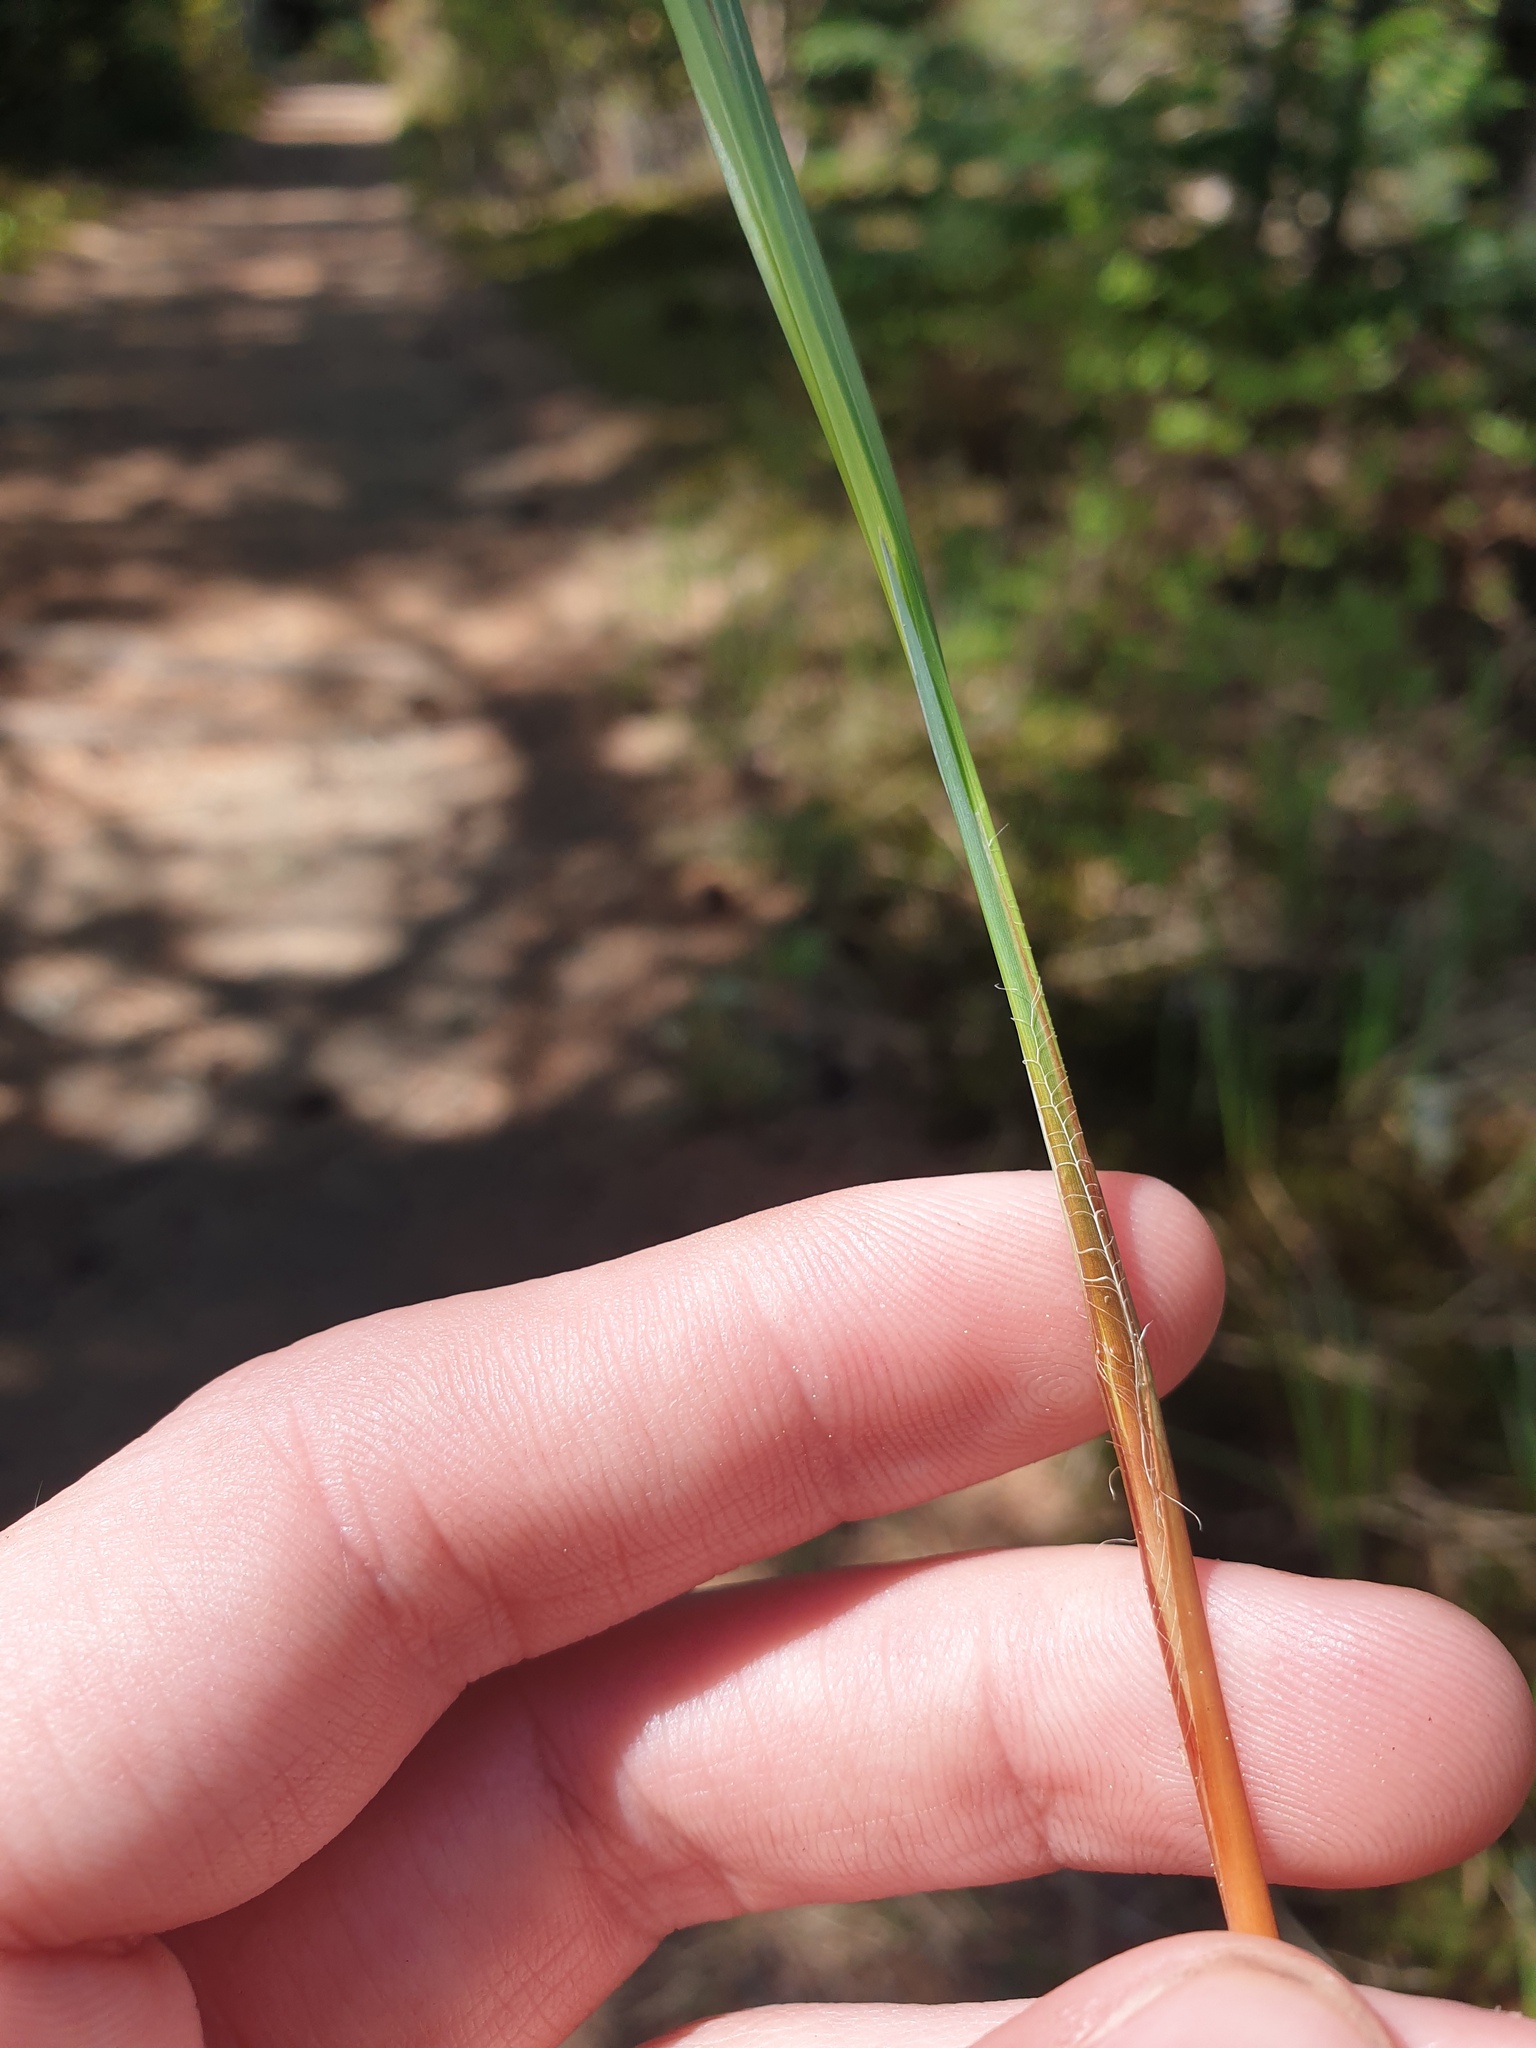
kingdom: Plantae
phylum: Tracheophyta
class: Liliopsida
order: Poales
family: Cyperaceae
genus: Carex
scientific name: Carex stricta
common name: Hummock sedge
